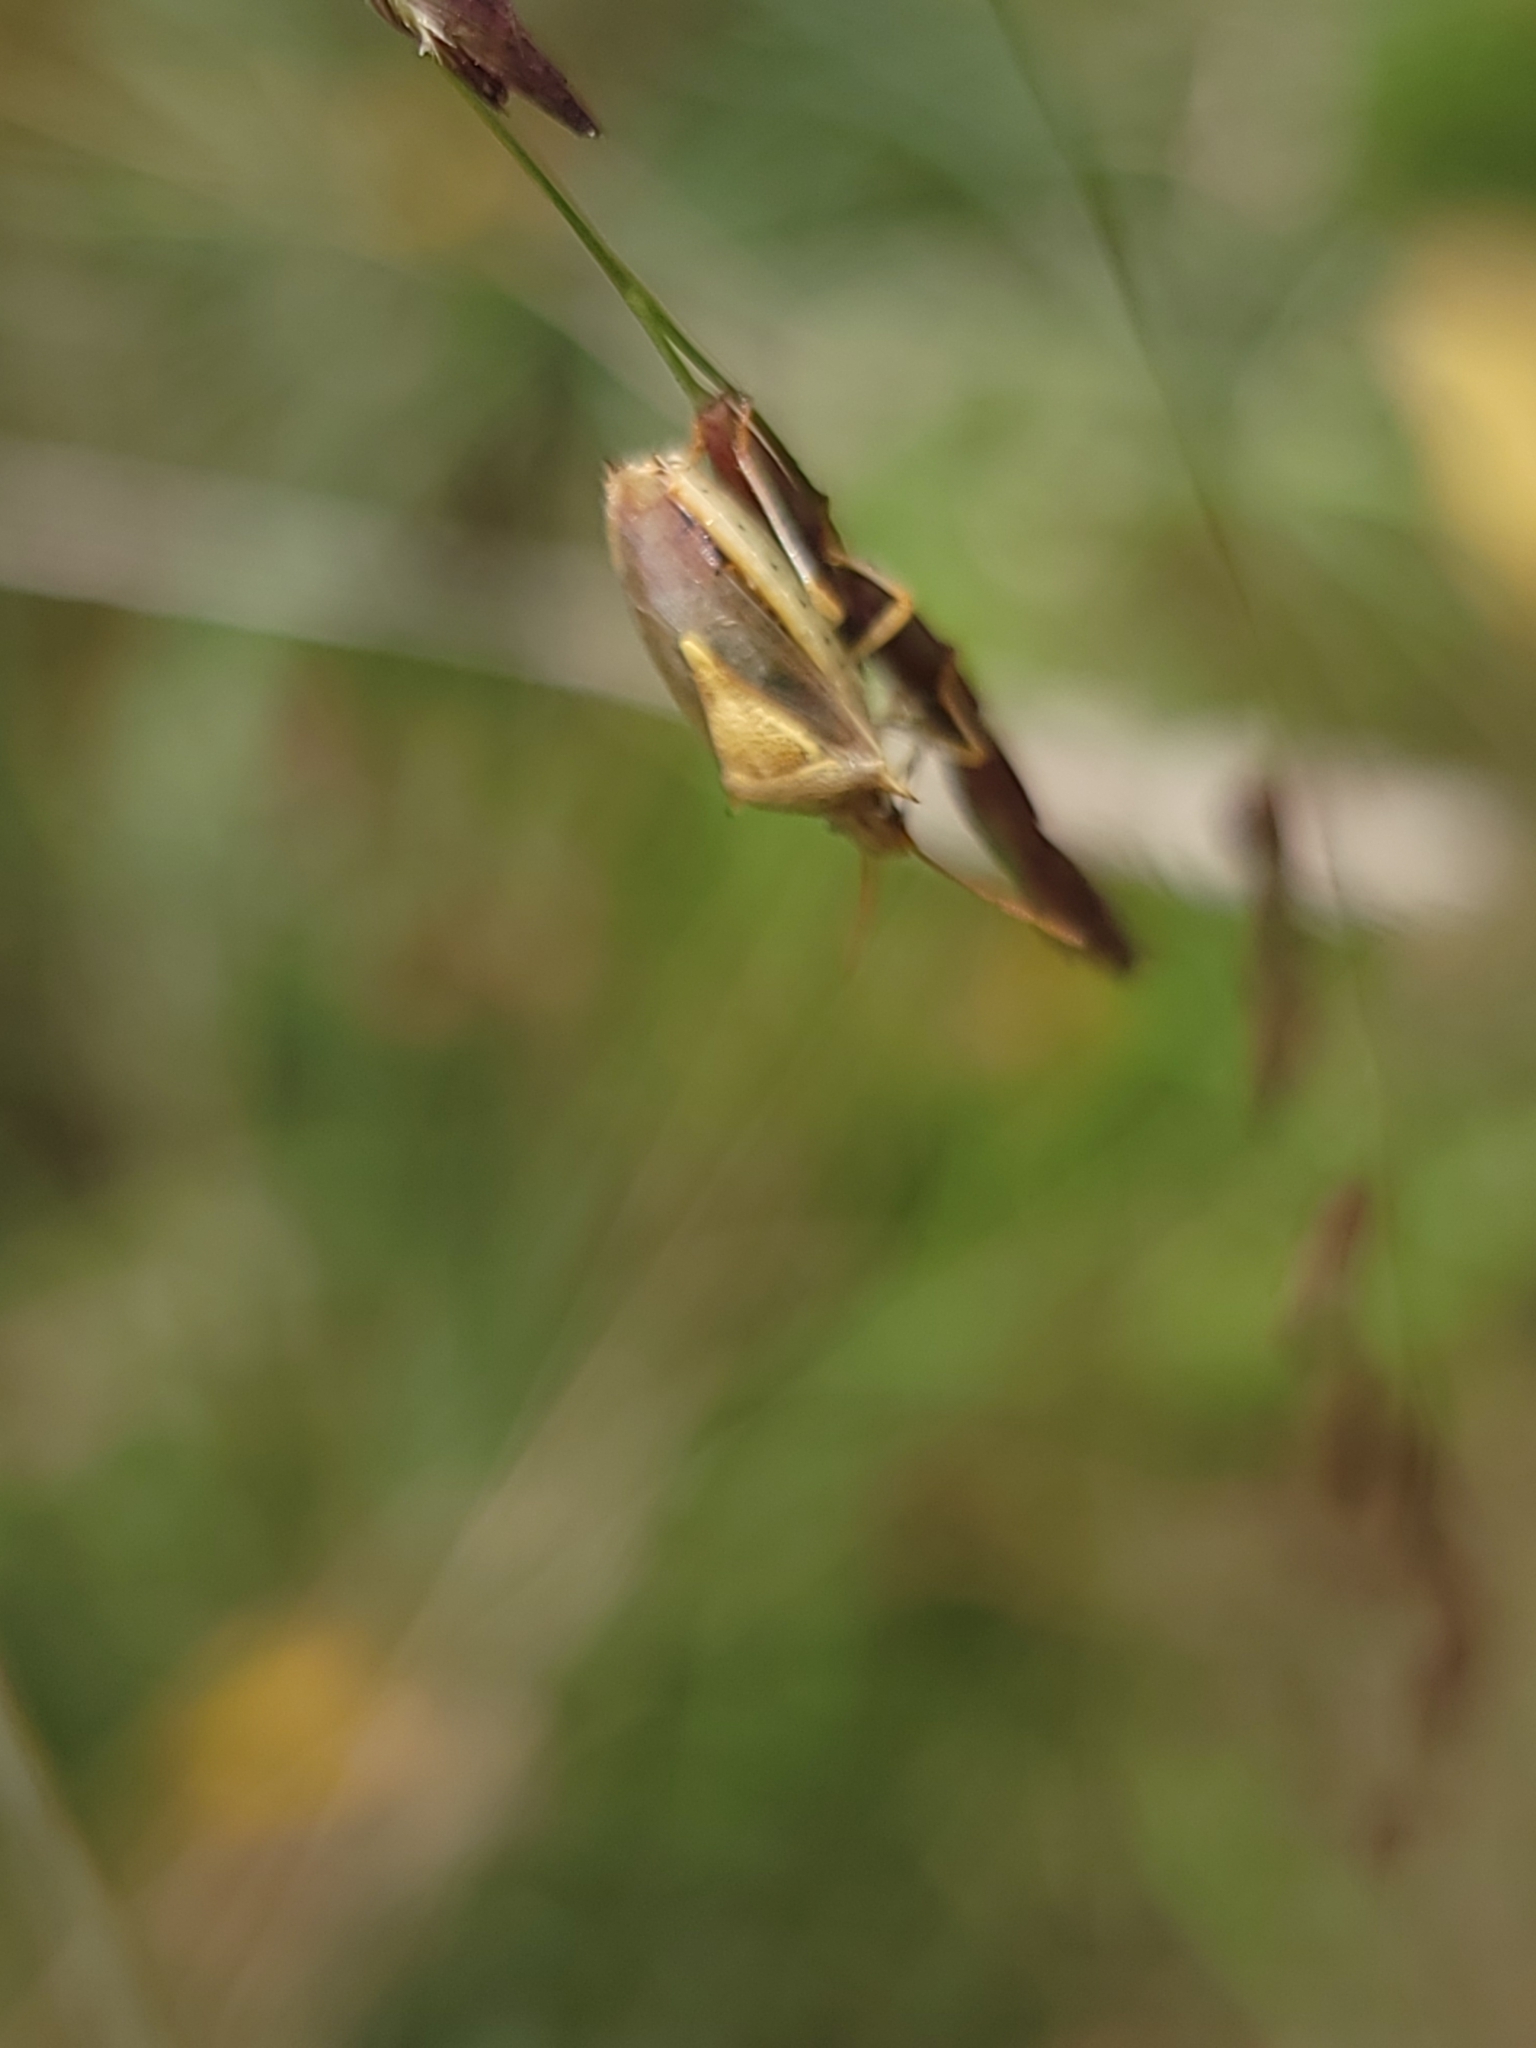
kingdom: Animalia
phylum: Arthropoda
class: Insecta
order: Hemiptera
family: Pentatomidae
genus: Oebalus
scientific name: Oebalus pugnax
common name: Rice stink bug
